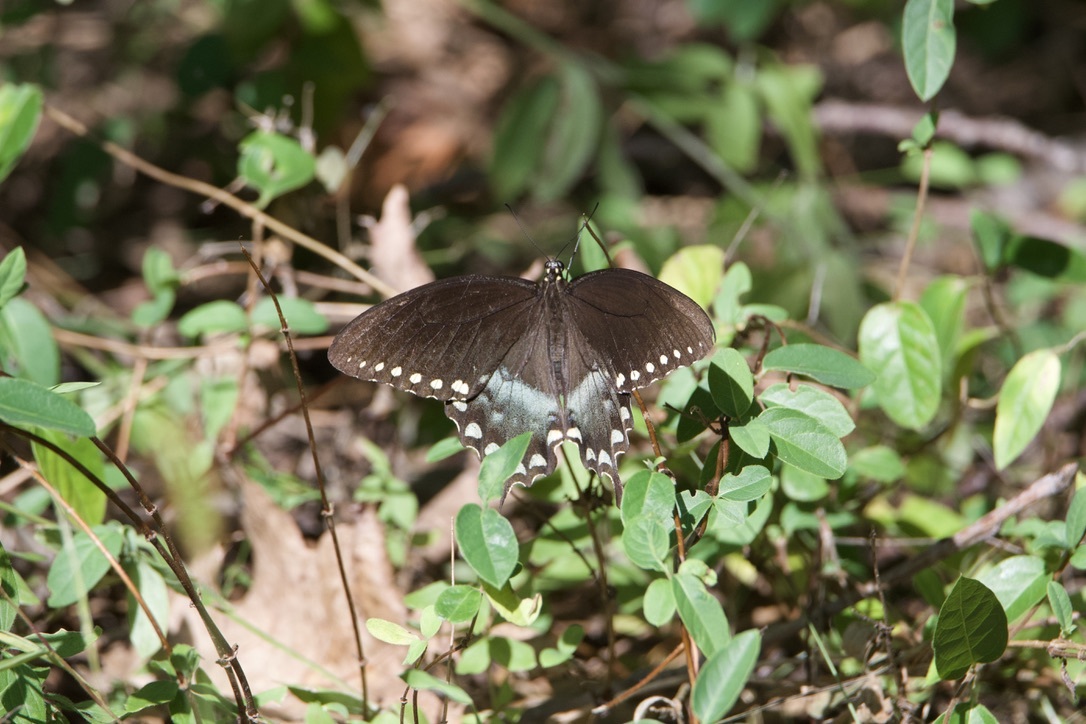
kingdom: Animalia
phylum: Arthropoda
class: Insecta
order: Lepidoptera
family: Papilionidae
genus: Papilio
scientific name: Papilio troilus
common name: Spicebush swallowtail
